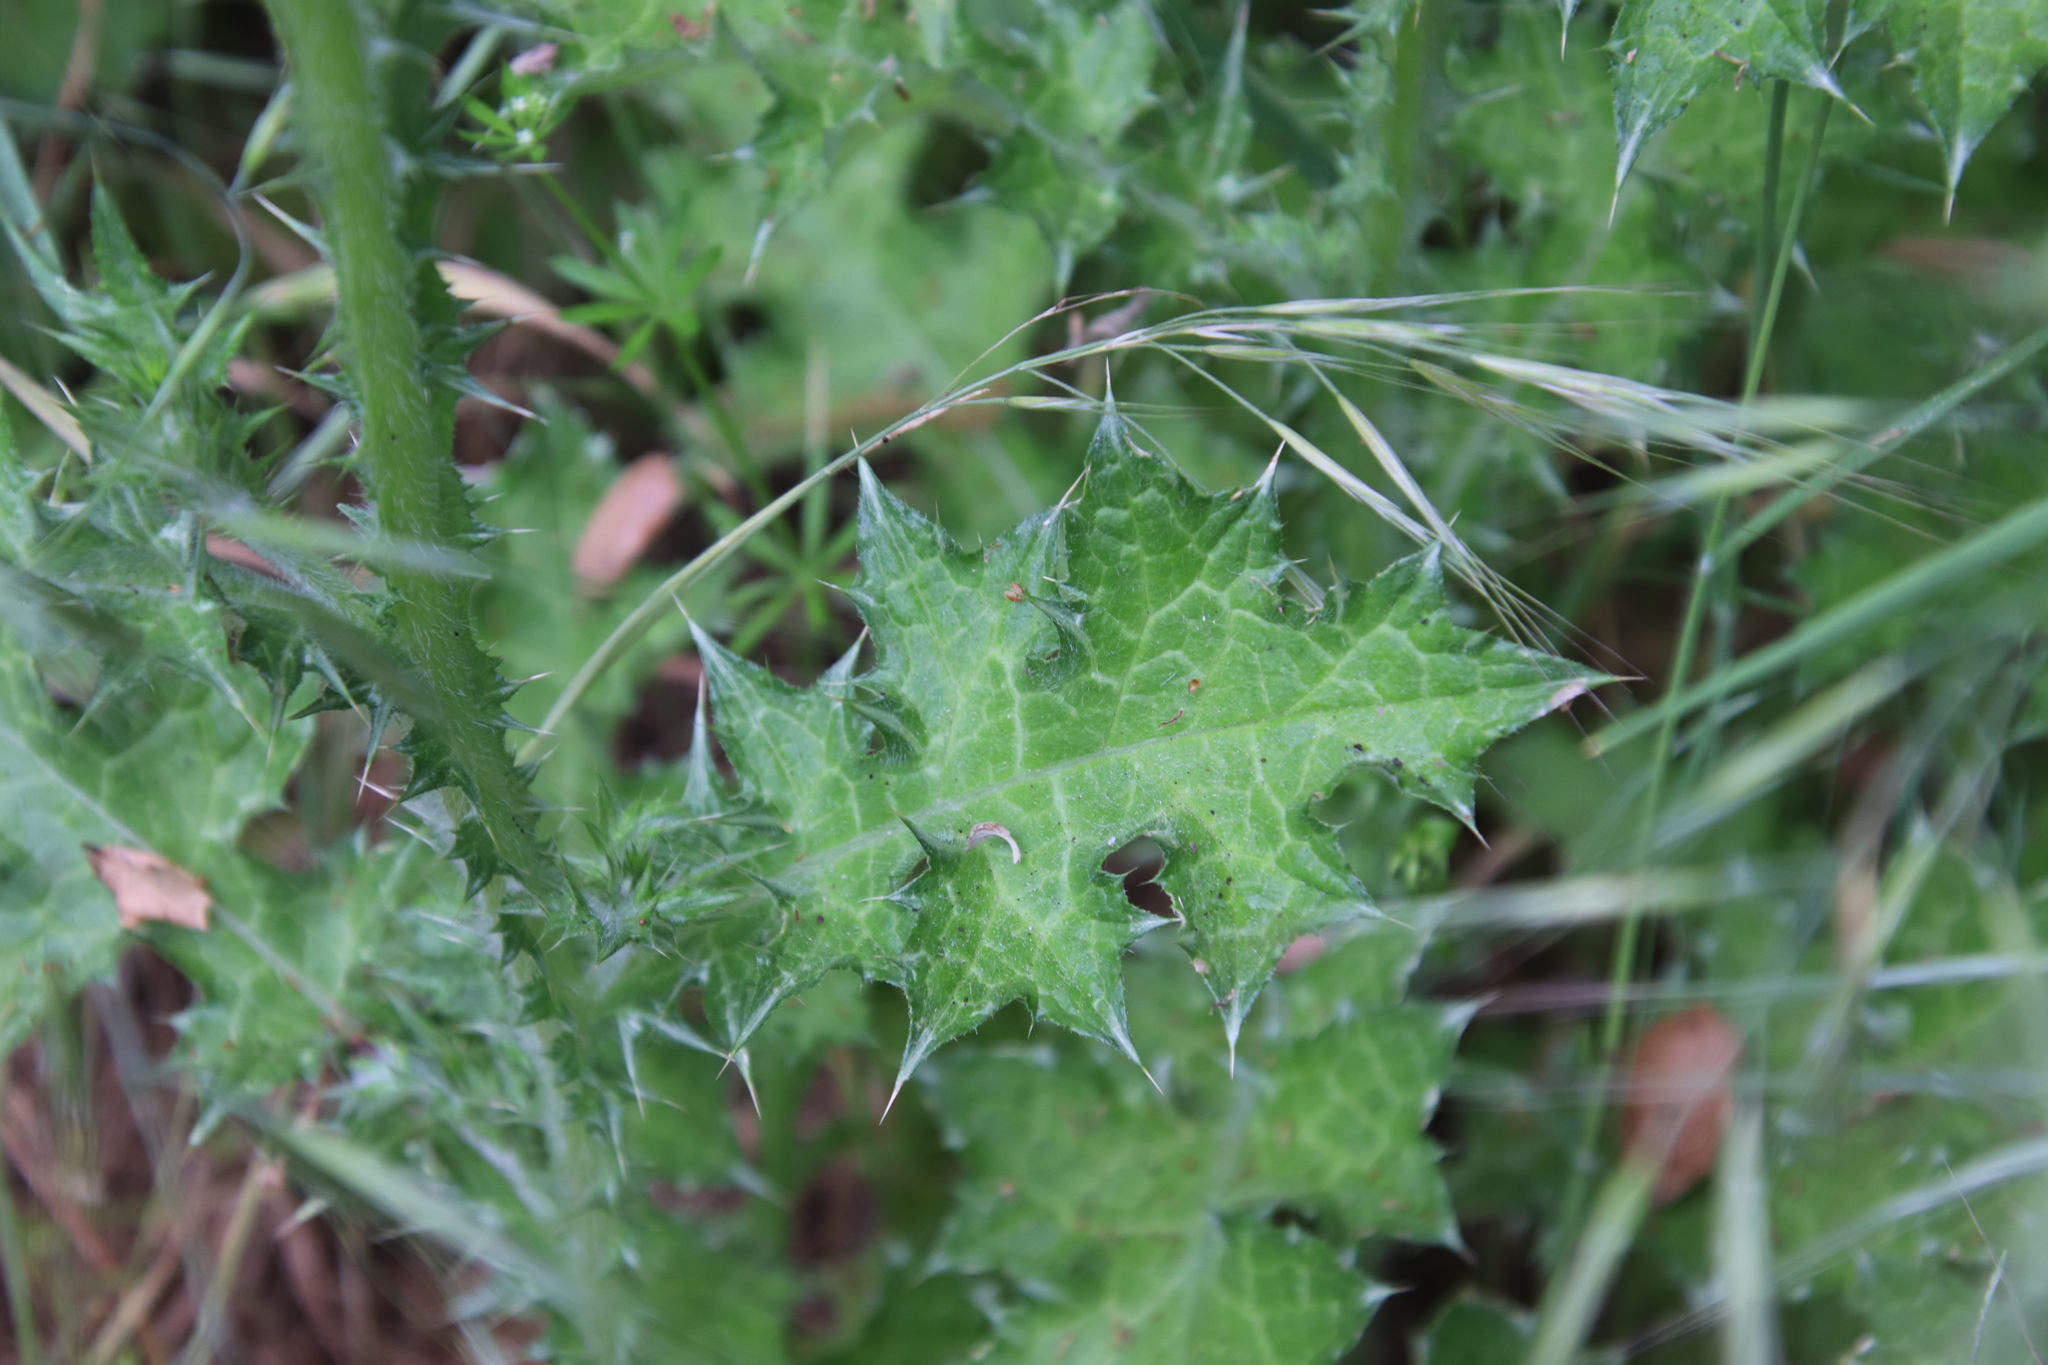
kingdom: Plantae
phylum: Tracheophyta
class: Magnoliopsida
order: Asterales
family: Asteraceae
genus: Carduus
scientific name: Carduus pycnocephalus
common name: Plymouth thistle
